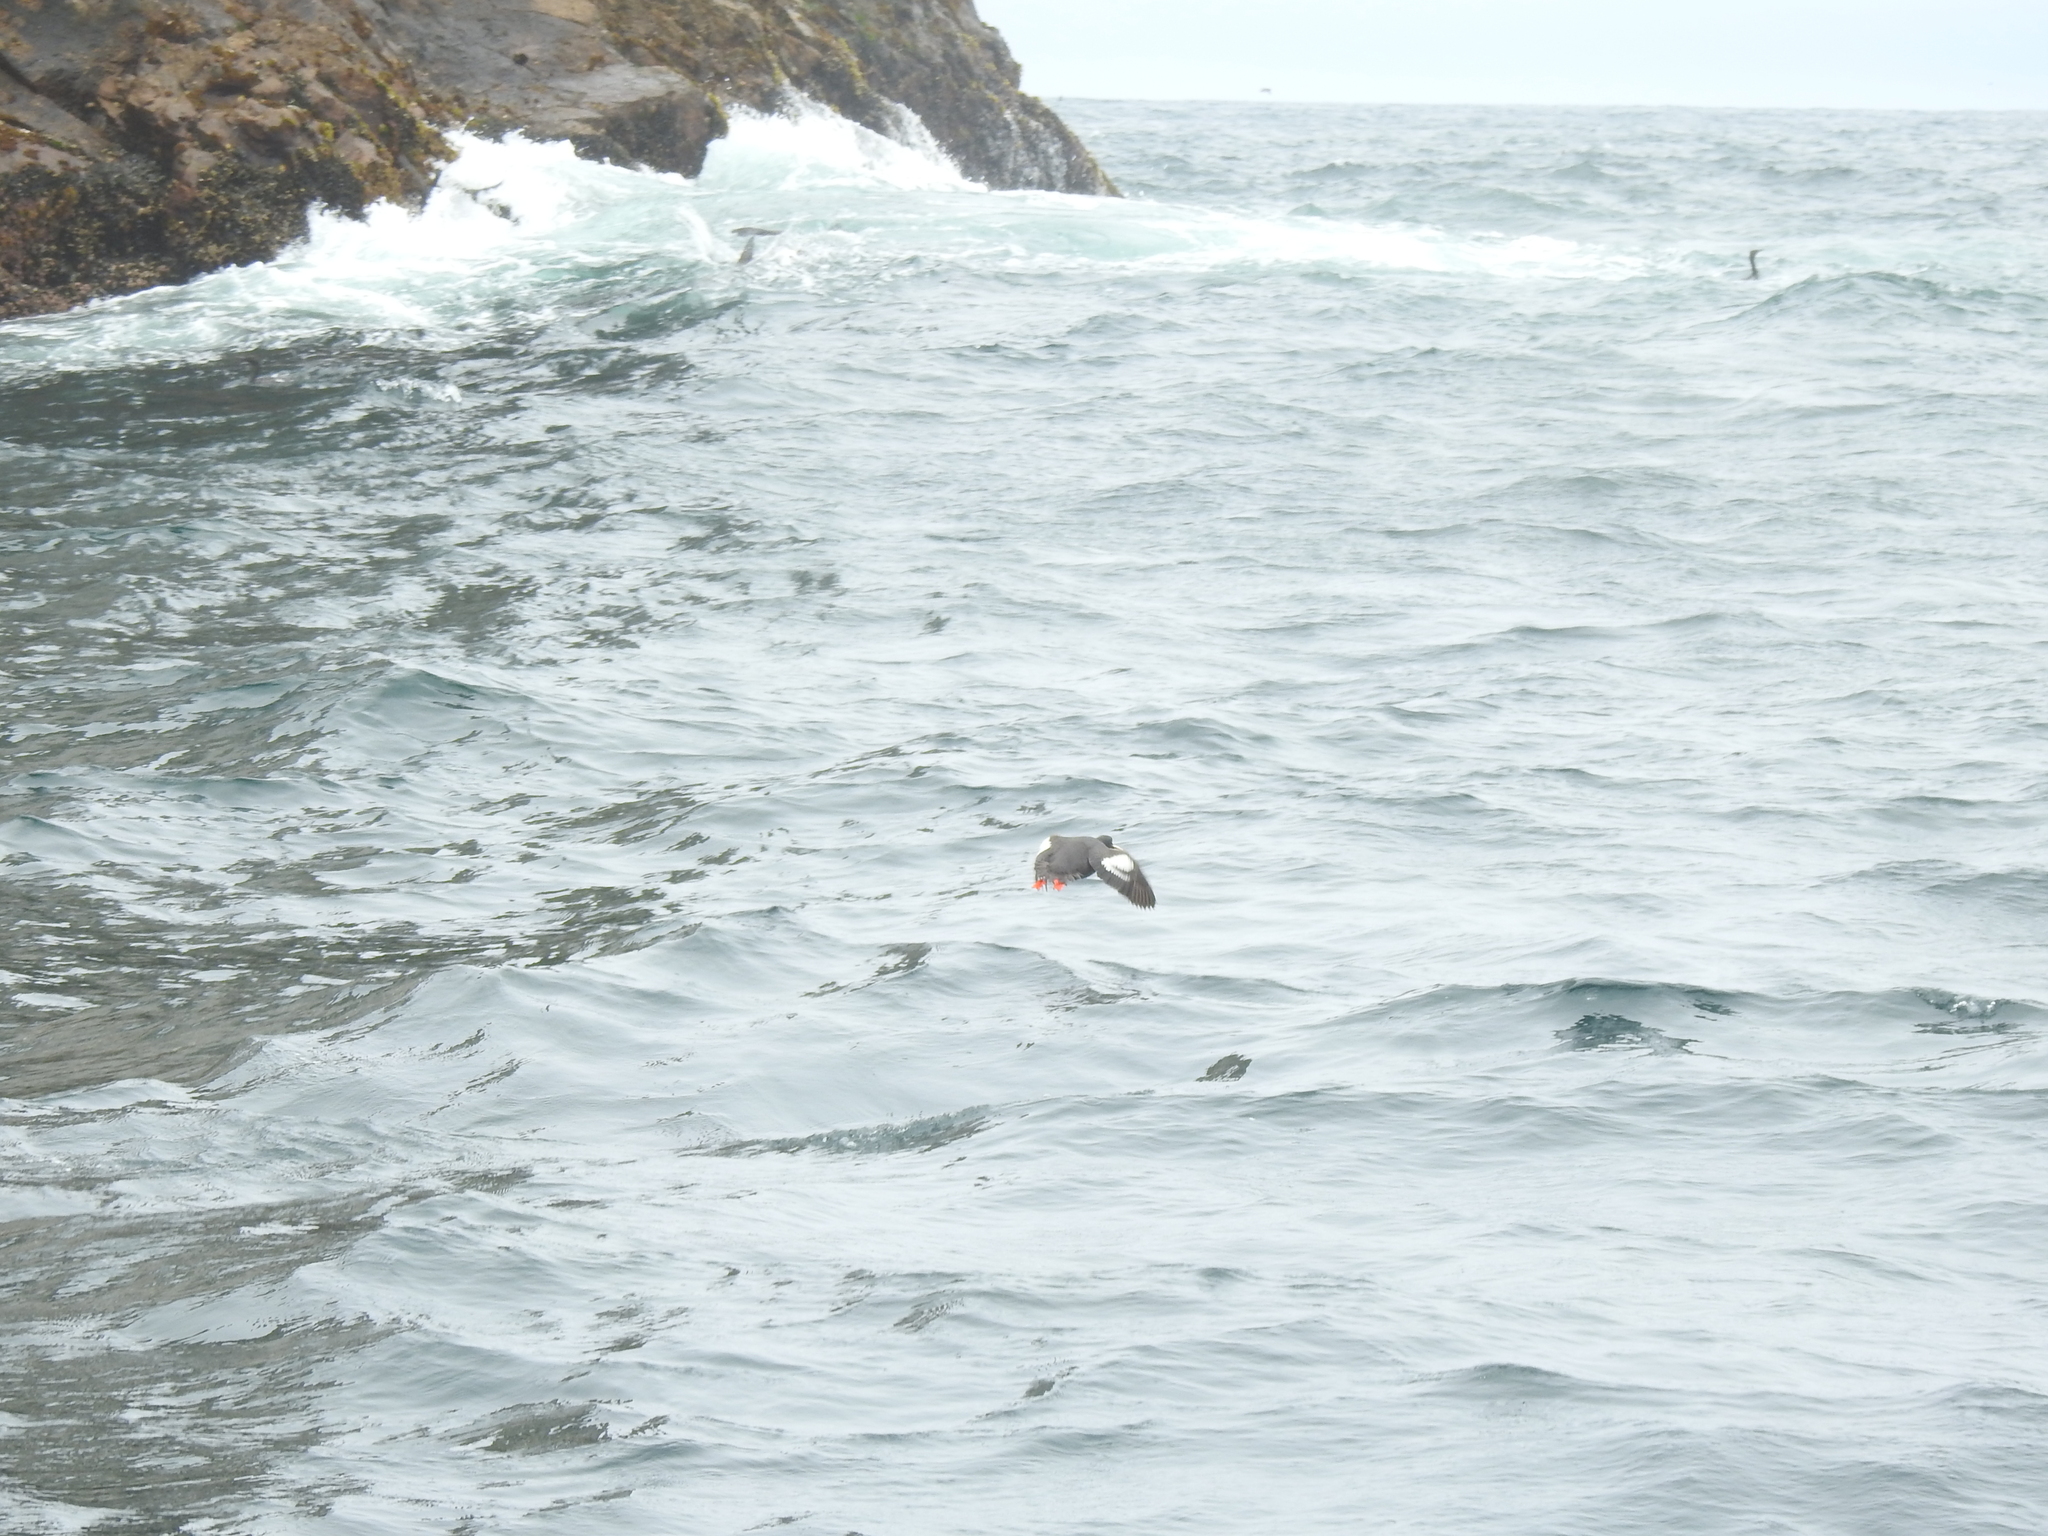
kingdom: Animalia
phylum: Chordata
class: Aves
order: Charadriiformes
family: Alcidae
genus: Cepphus
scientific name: Cepphus columba
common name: Pigeon guillemot
